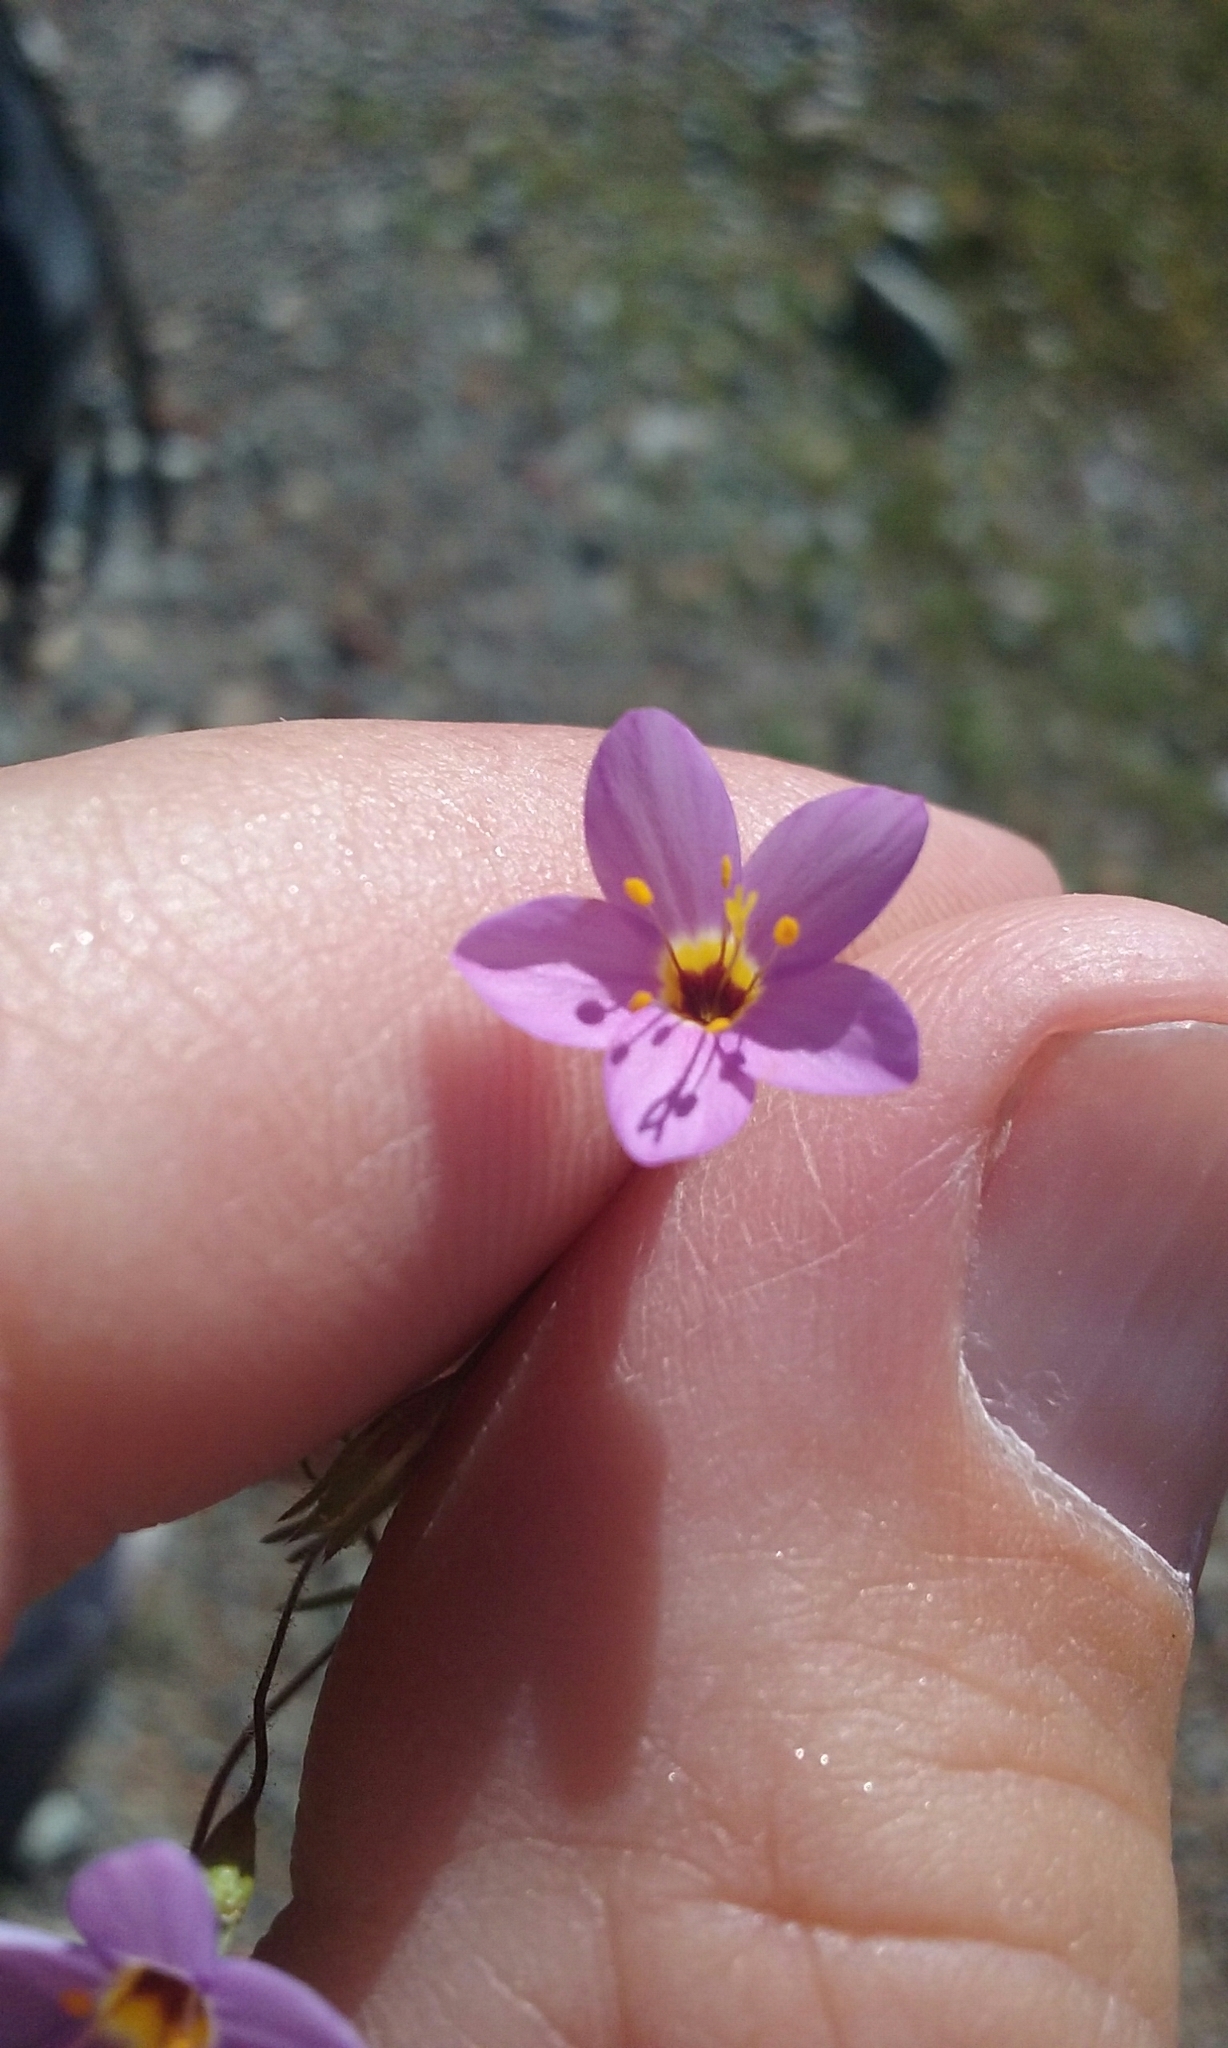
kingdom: Plantae
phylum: Tracheophyta
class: Magnoliopsida
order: Ericales
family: Polemoniaceae
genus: Leptosiphon
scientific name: Leptosiphon ambiguus
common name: Serpentine linanthus
